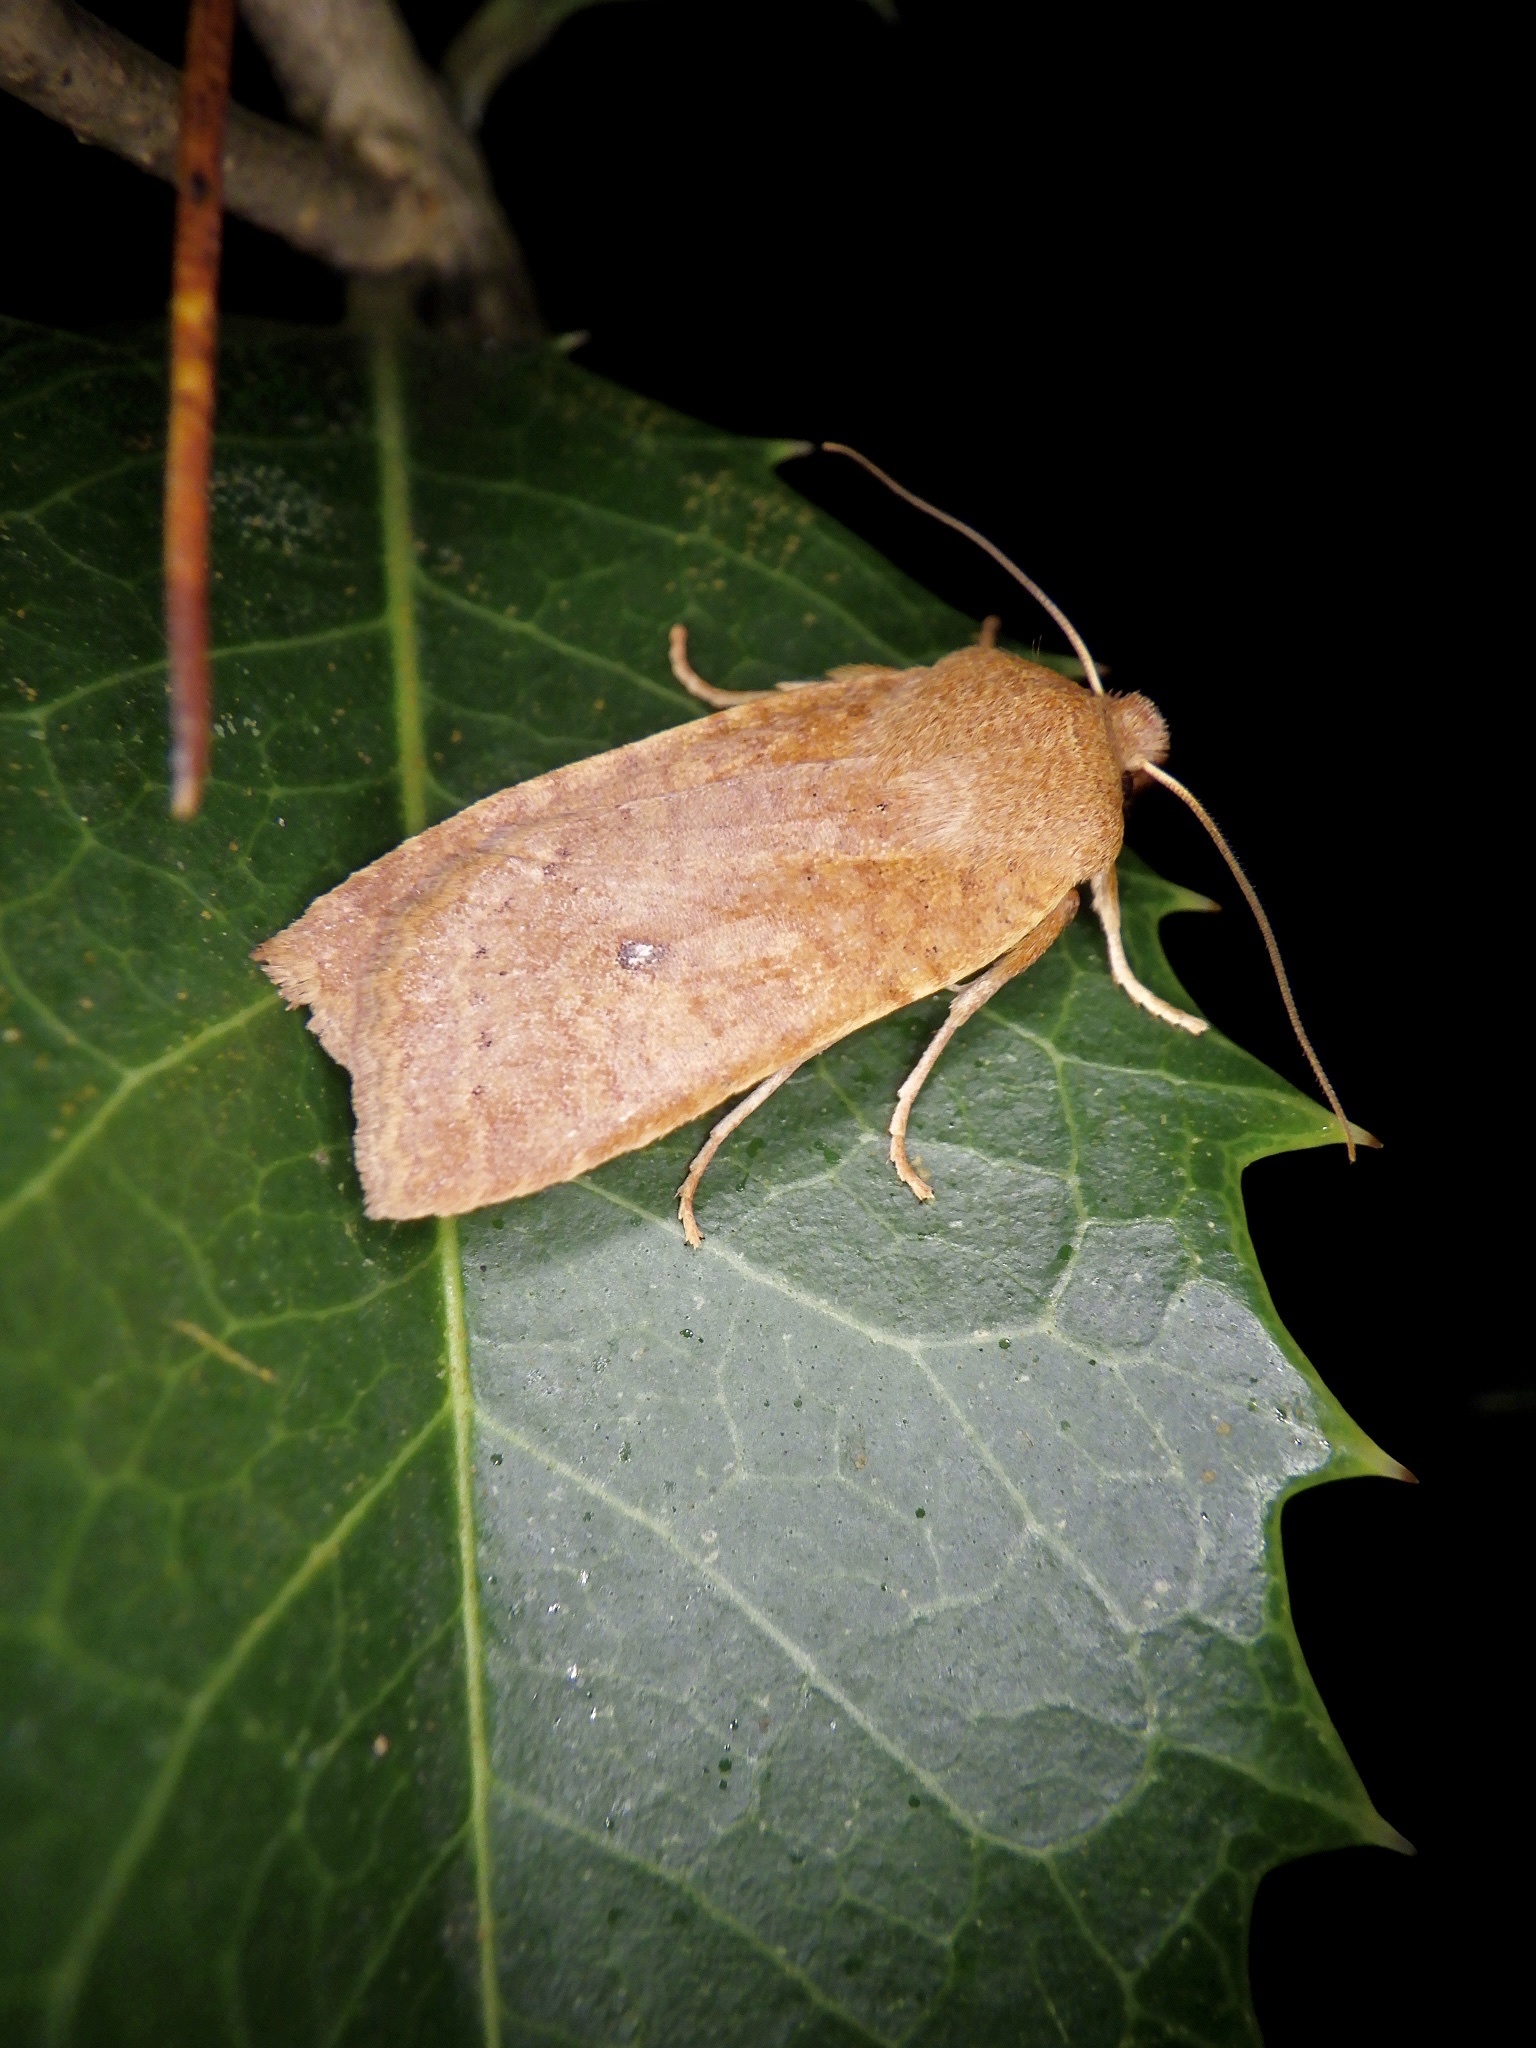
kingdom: Animalia
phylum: Arthropoda
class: Insecta
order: Lepidoptera
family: Noctuidae
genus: Conistra
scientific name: Conistra albipuncta
